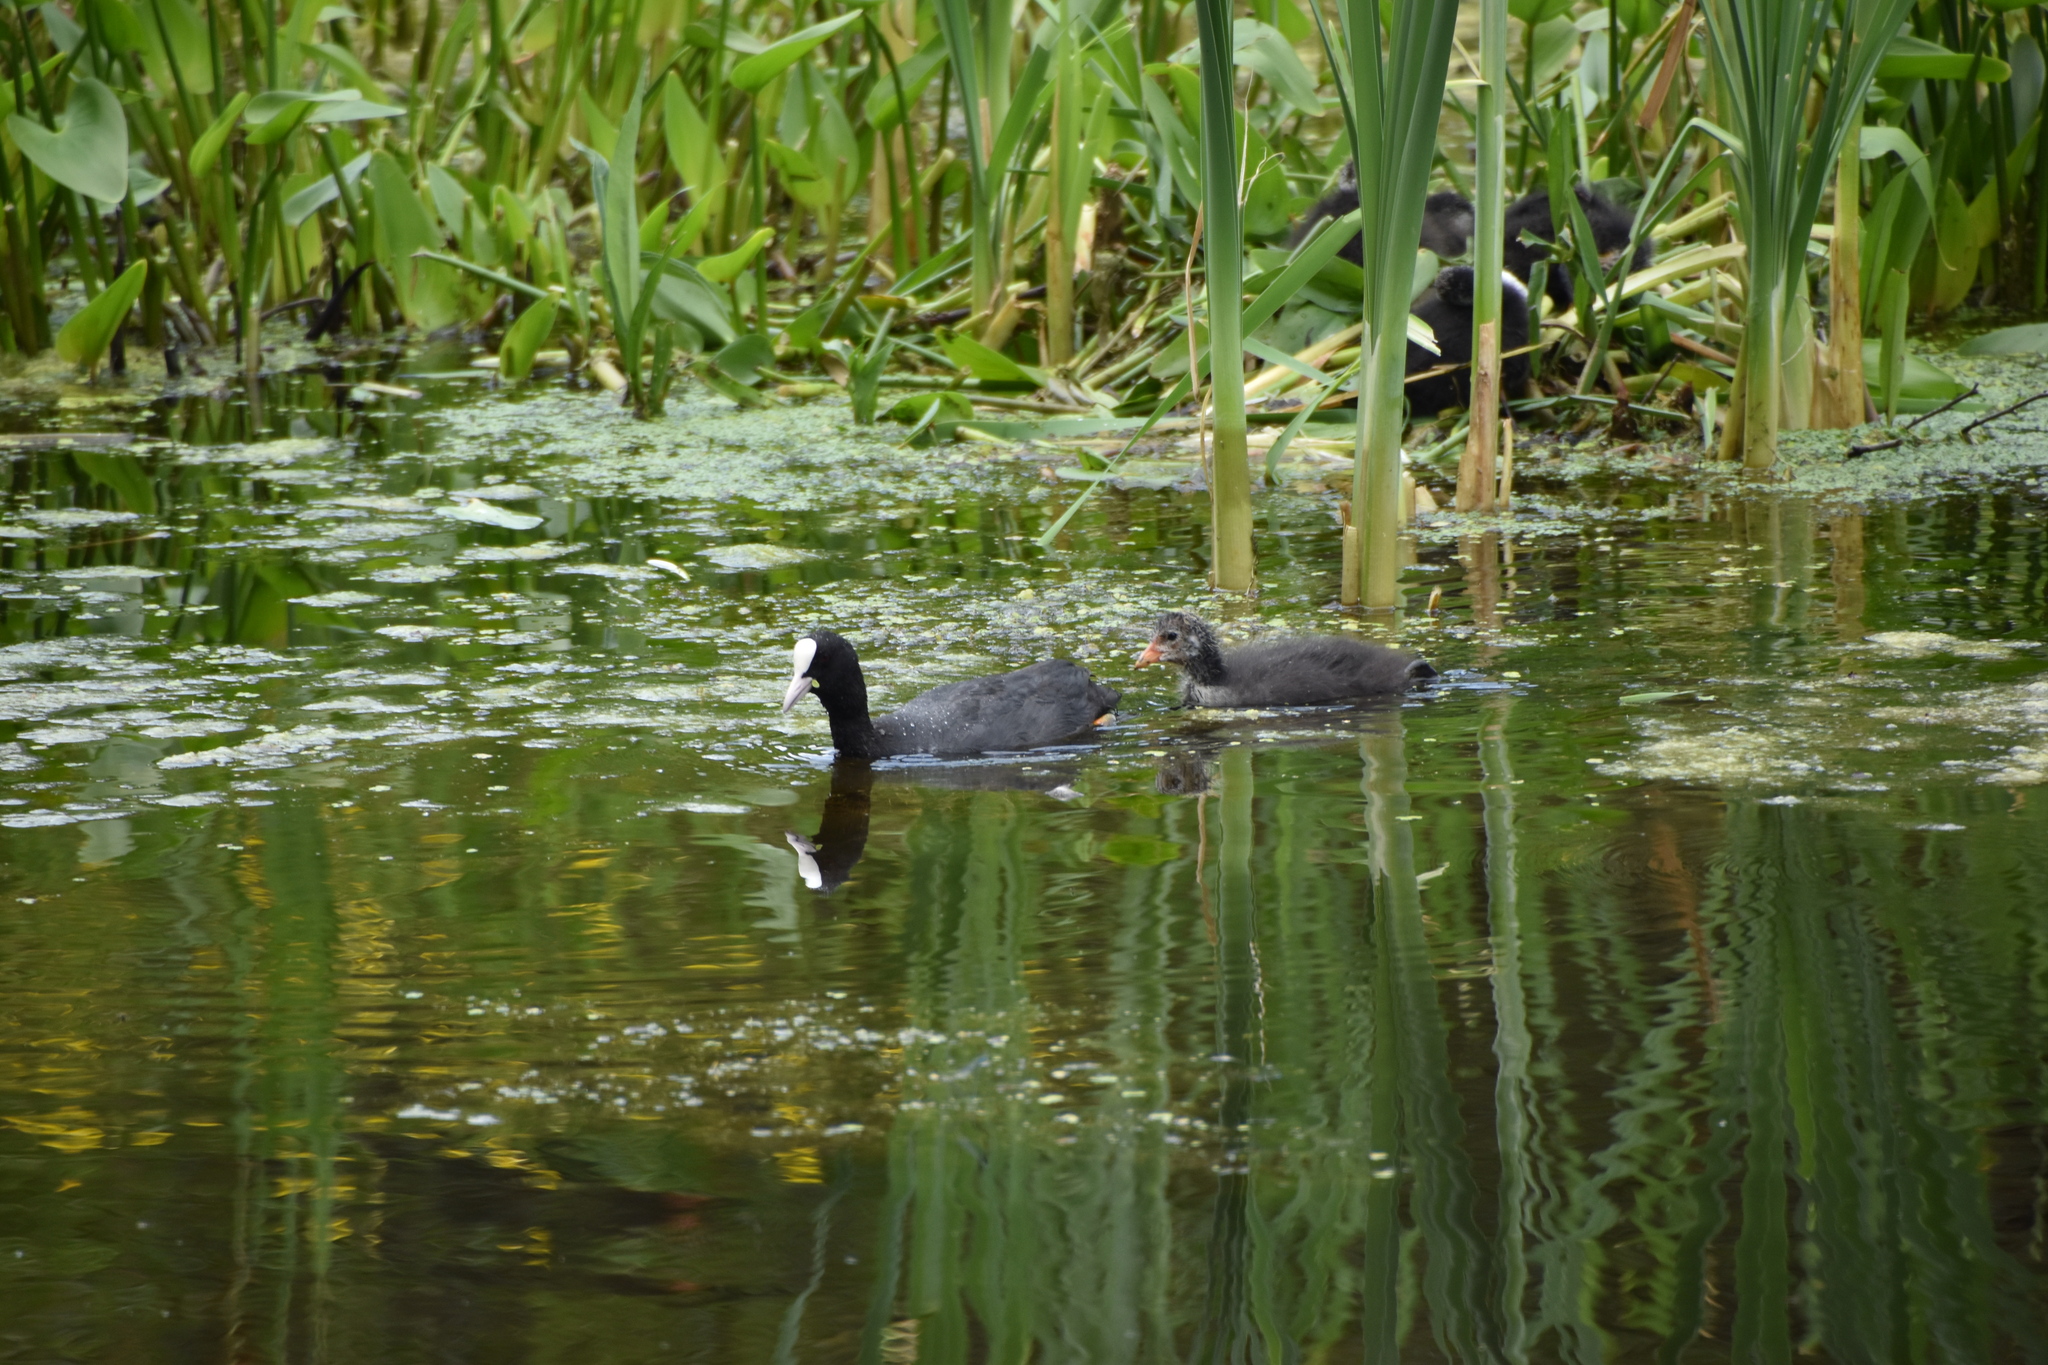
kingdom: Animalia
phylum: Chordata
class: Aves
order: Gruiformes
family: Rallidae
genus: Fulica
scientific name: Fulica atra
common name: Eurasian coot
